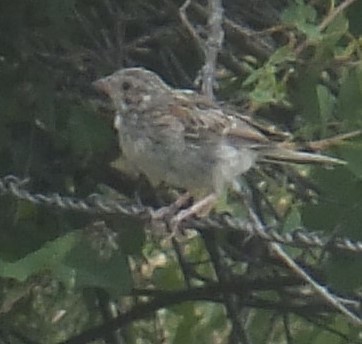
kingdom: Animalia
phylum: Chordata
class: Aves
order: Passeriformes
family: Passerellidae
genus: Pooecetes
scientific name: Pooecetes gramineus
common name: Vesper sparrow
